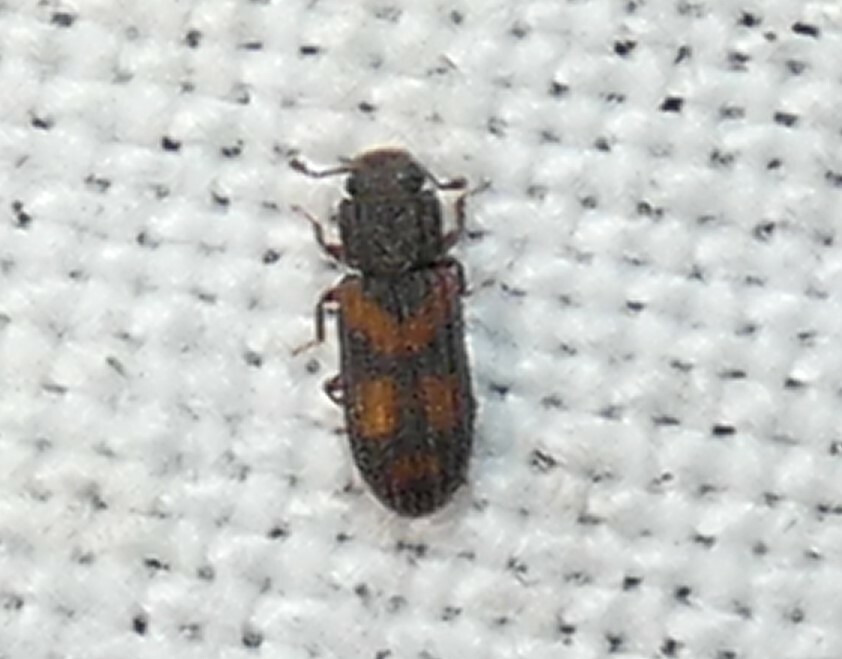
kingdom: Animalia
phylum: Arthropoda
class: Insecta
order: Coleoptera
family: Zopheridae
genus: Bitoma
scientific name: Bitoma quadriguttata
